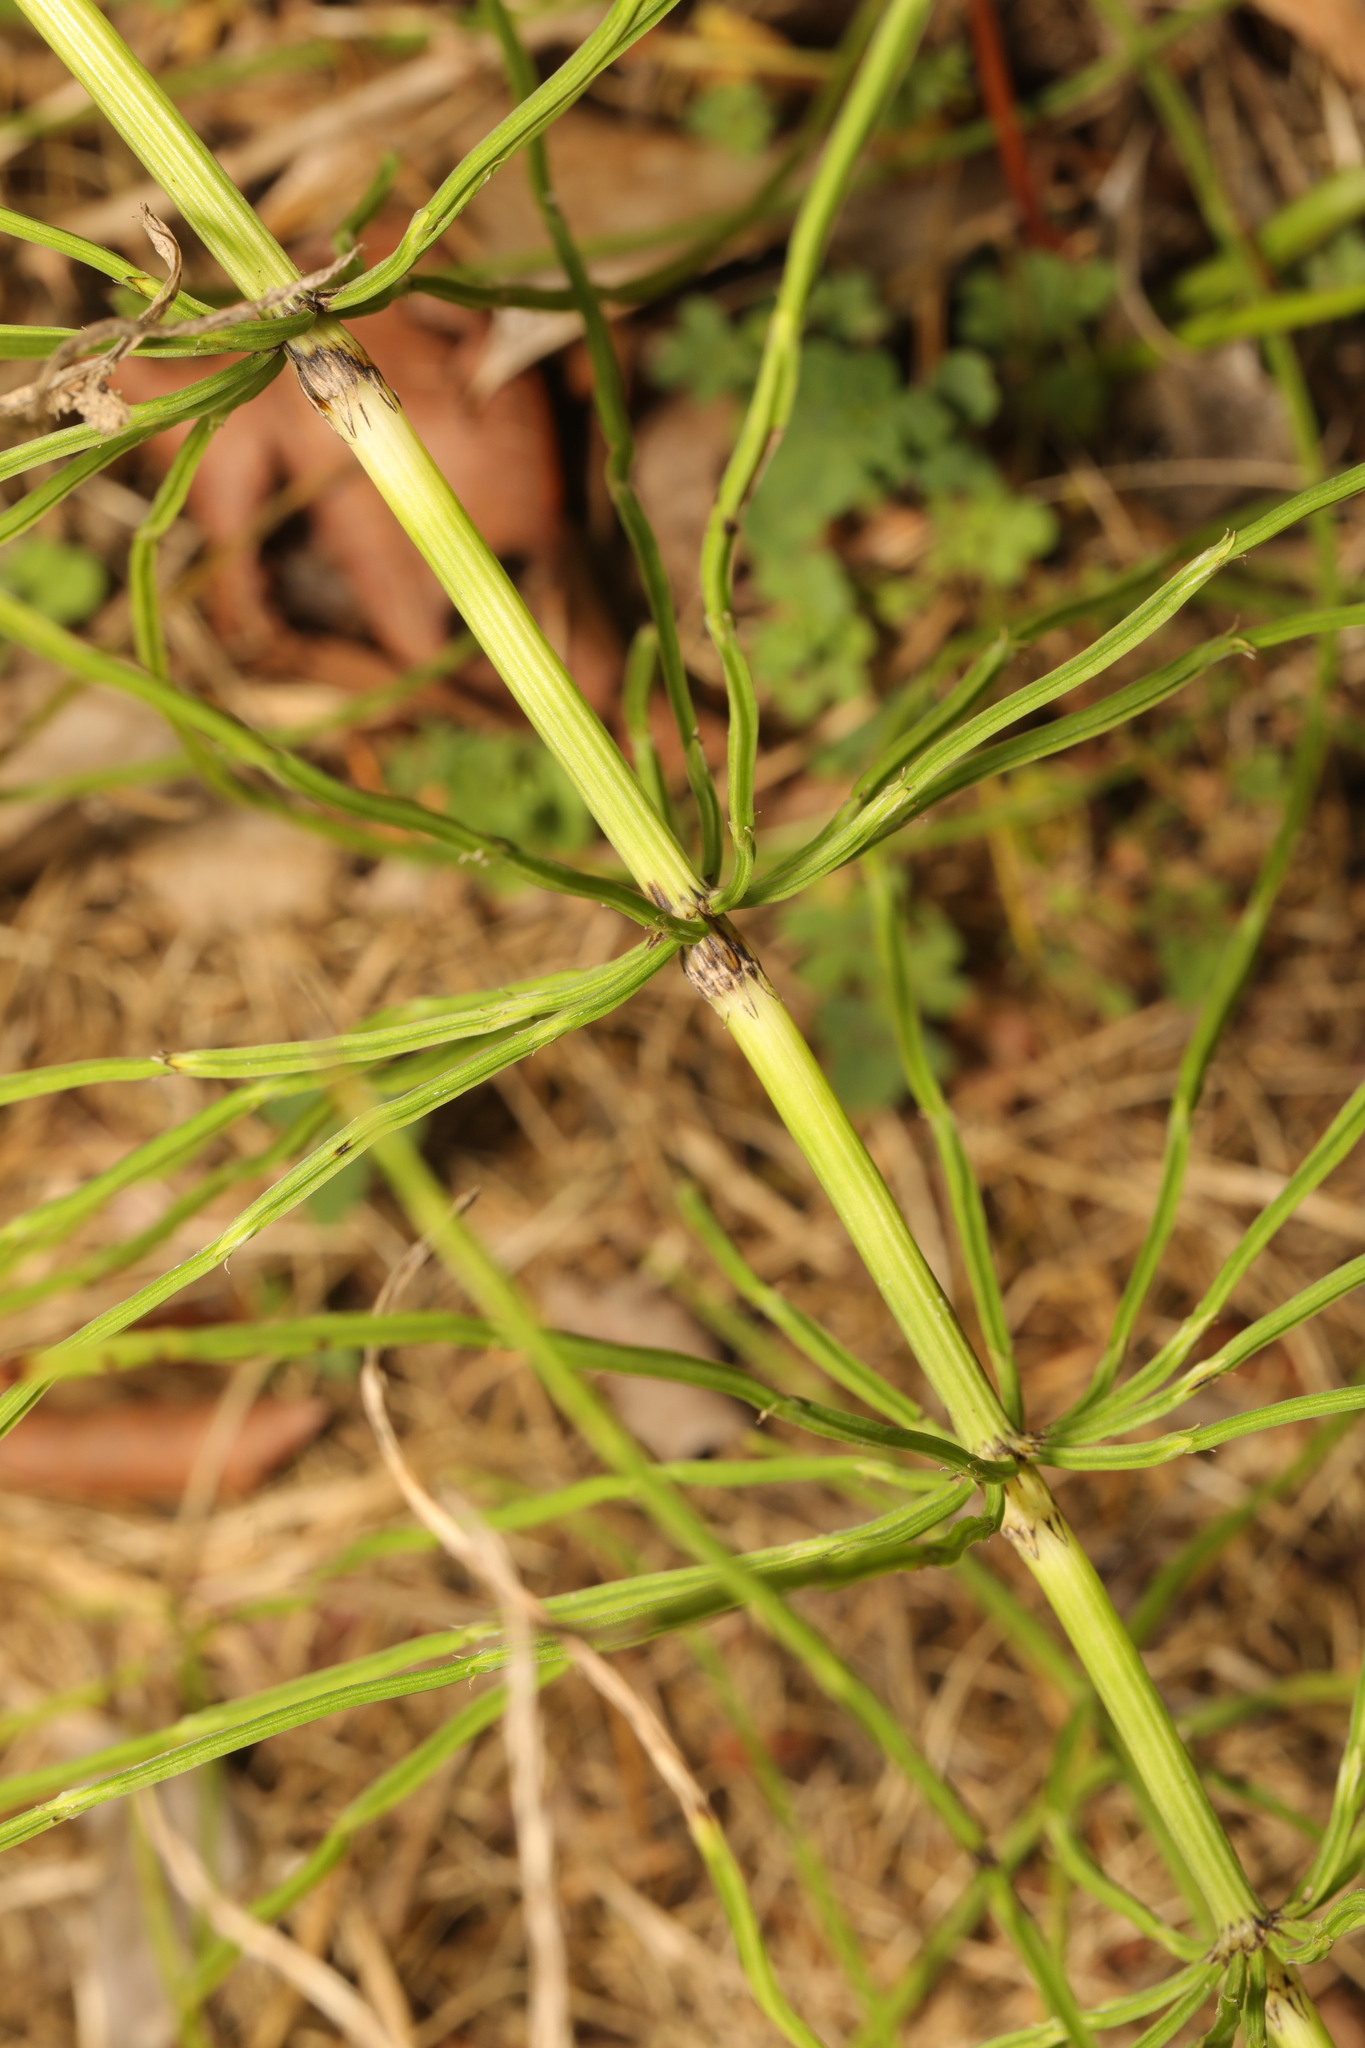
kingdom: Plantae
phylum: Tracheophyta
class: Polypodiopsida
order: Equisetales
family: Equisetaceae
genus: Equisetum
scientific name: Equisetum arvense
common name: Field horsetail
